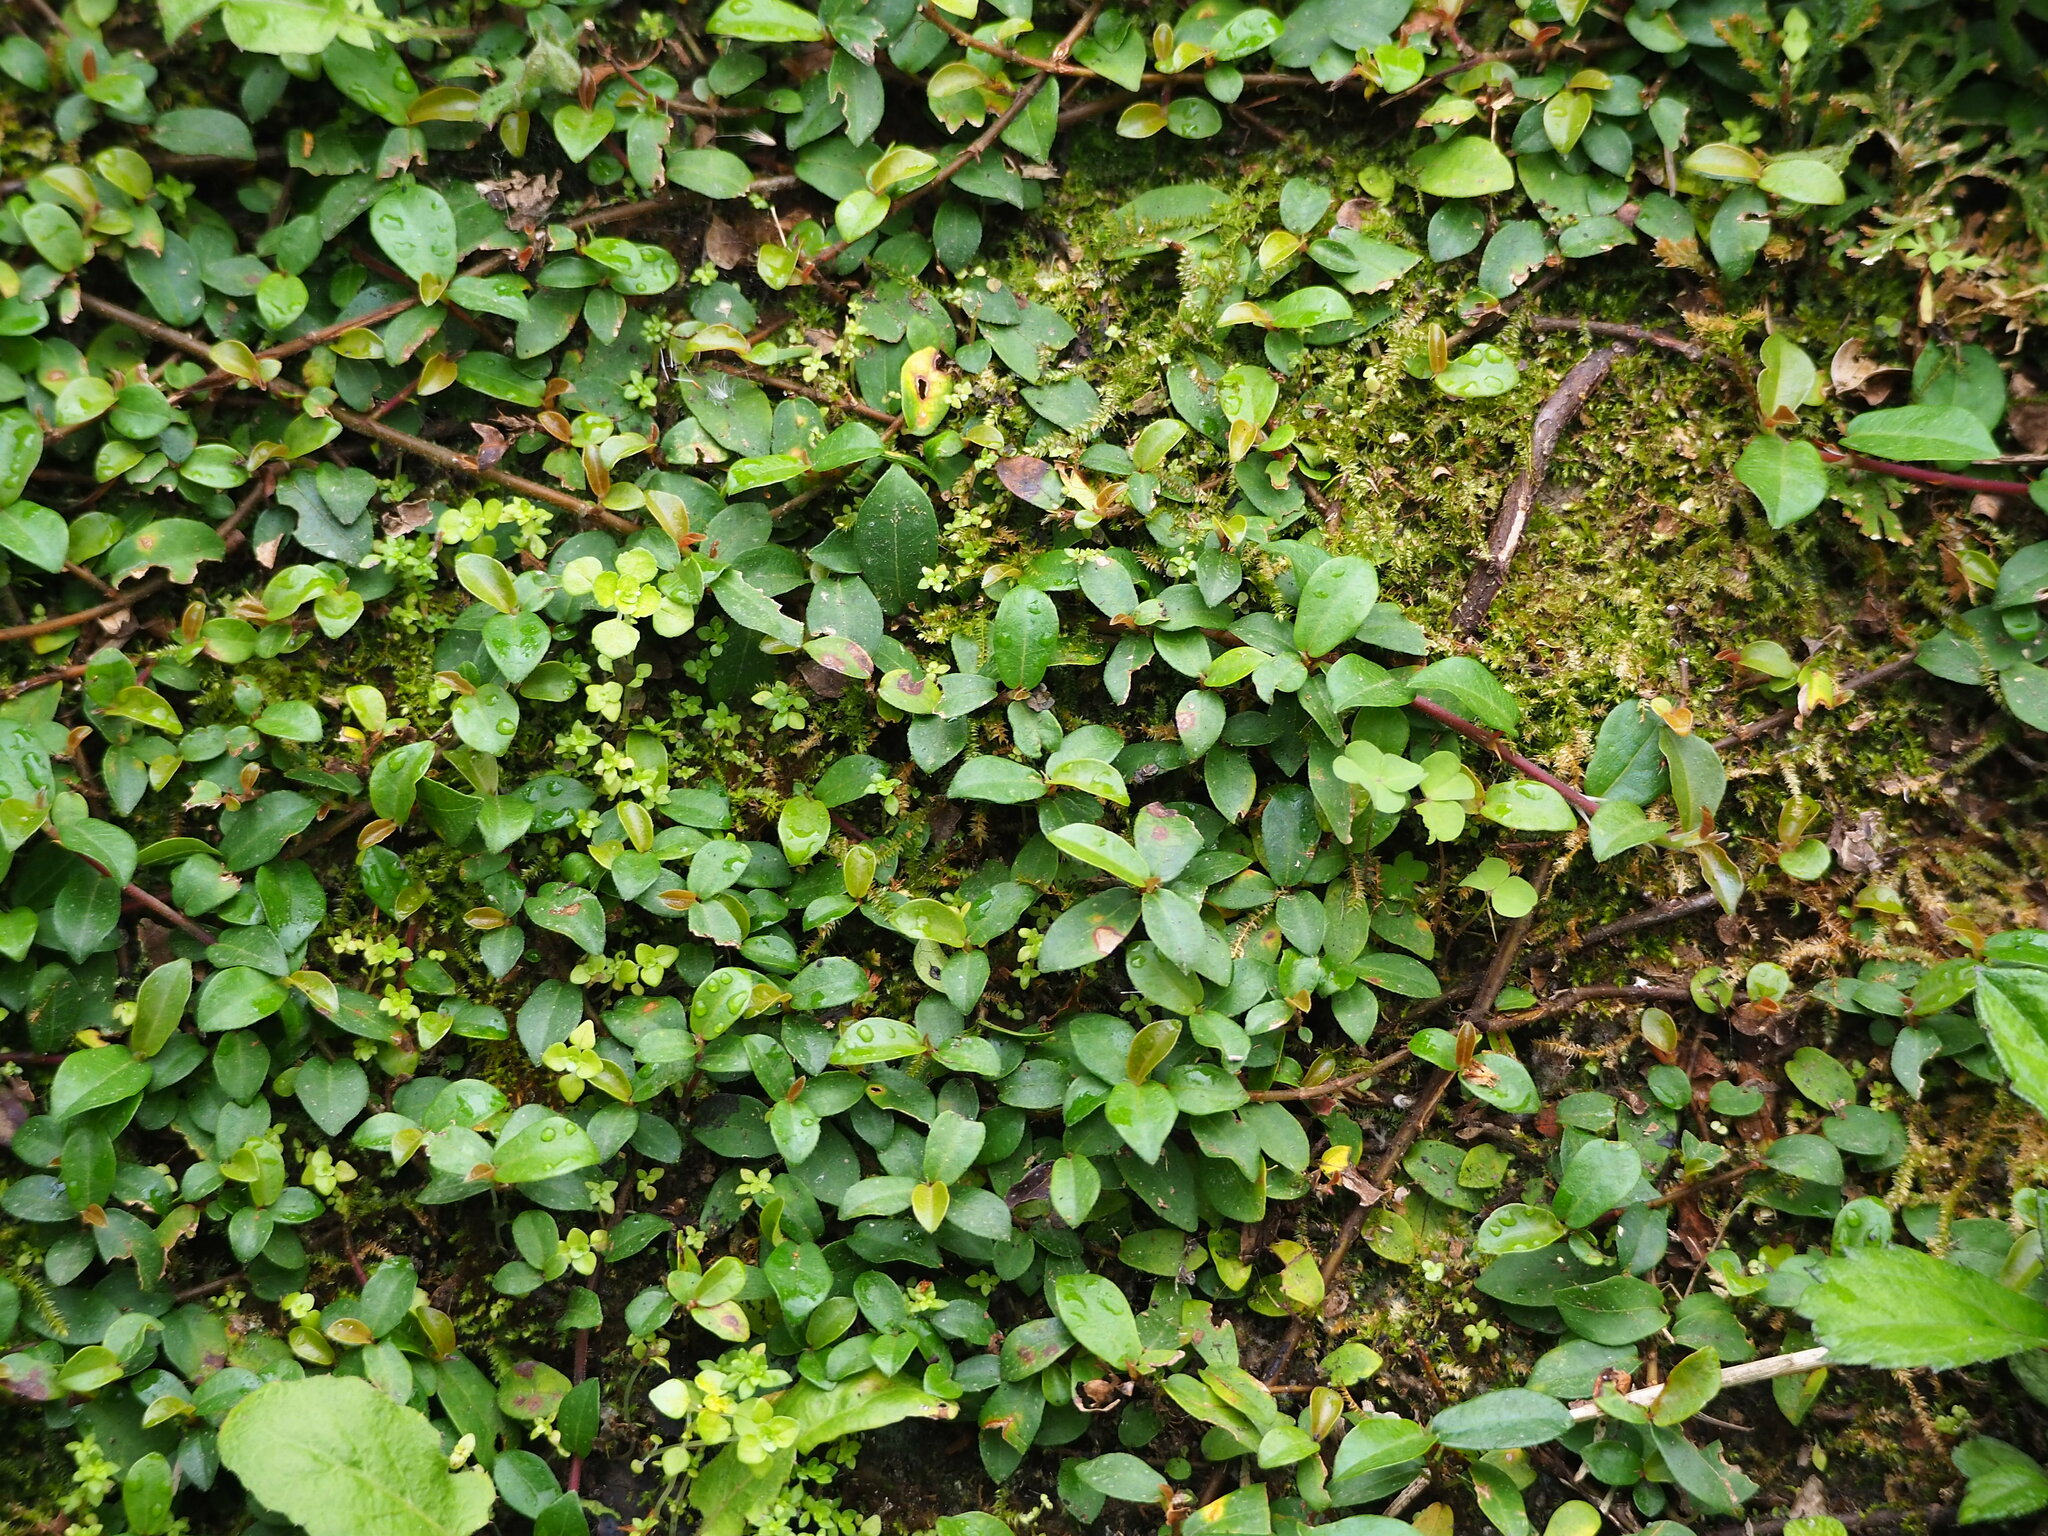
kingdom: Plantae
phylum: Tracheophyta
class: Magnoliopsida
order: Rosales
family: Moraceae
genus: Ficus
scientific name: Ficus vaccinioides
